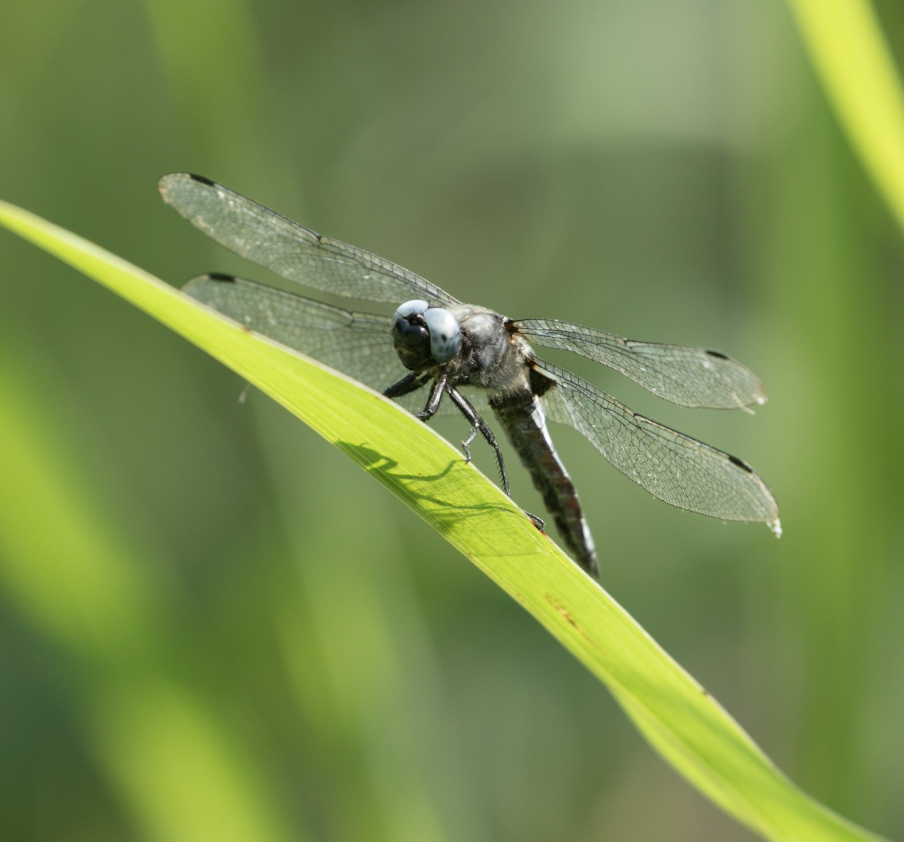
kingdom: Animalia
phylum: Arthropoda
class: Insecta
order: Odonata
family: Libellulidae
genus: Libellula
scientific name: Libellula fulva
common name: Blue chaser
